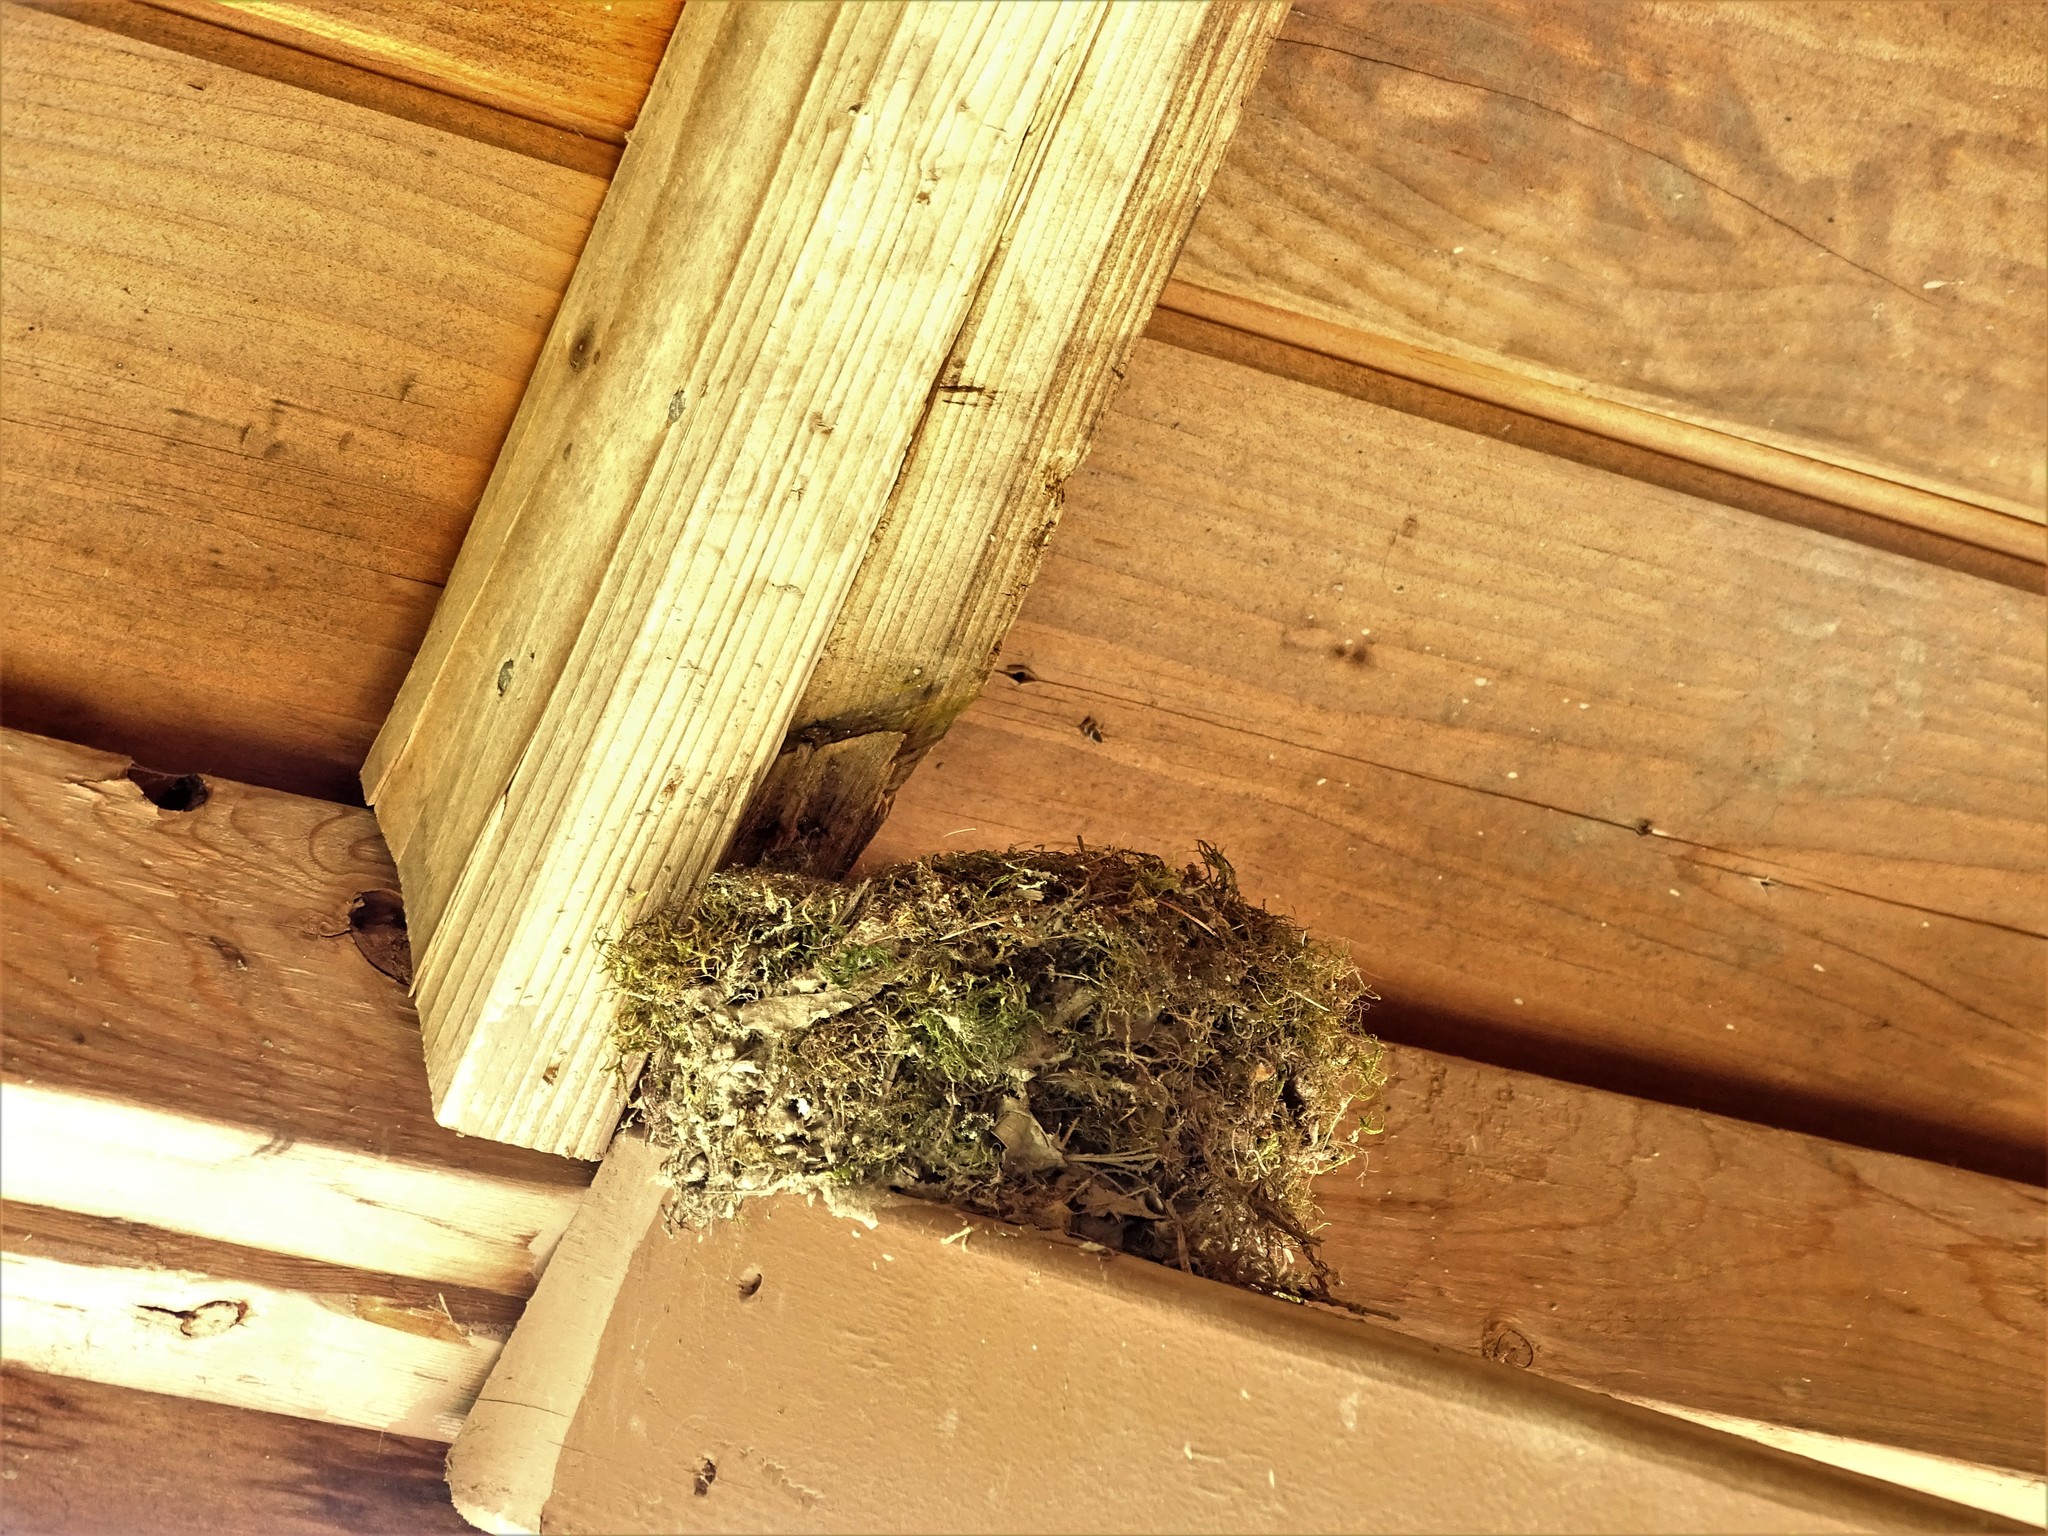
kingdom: Animalia
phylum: Chordata
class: Aves
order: Passeriformes
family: Tyrannidae
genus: Sayornis
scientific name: Sayornis phoebe
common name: Eastern phoebe
